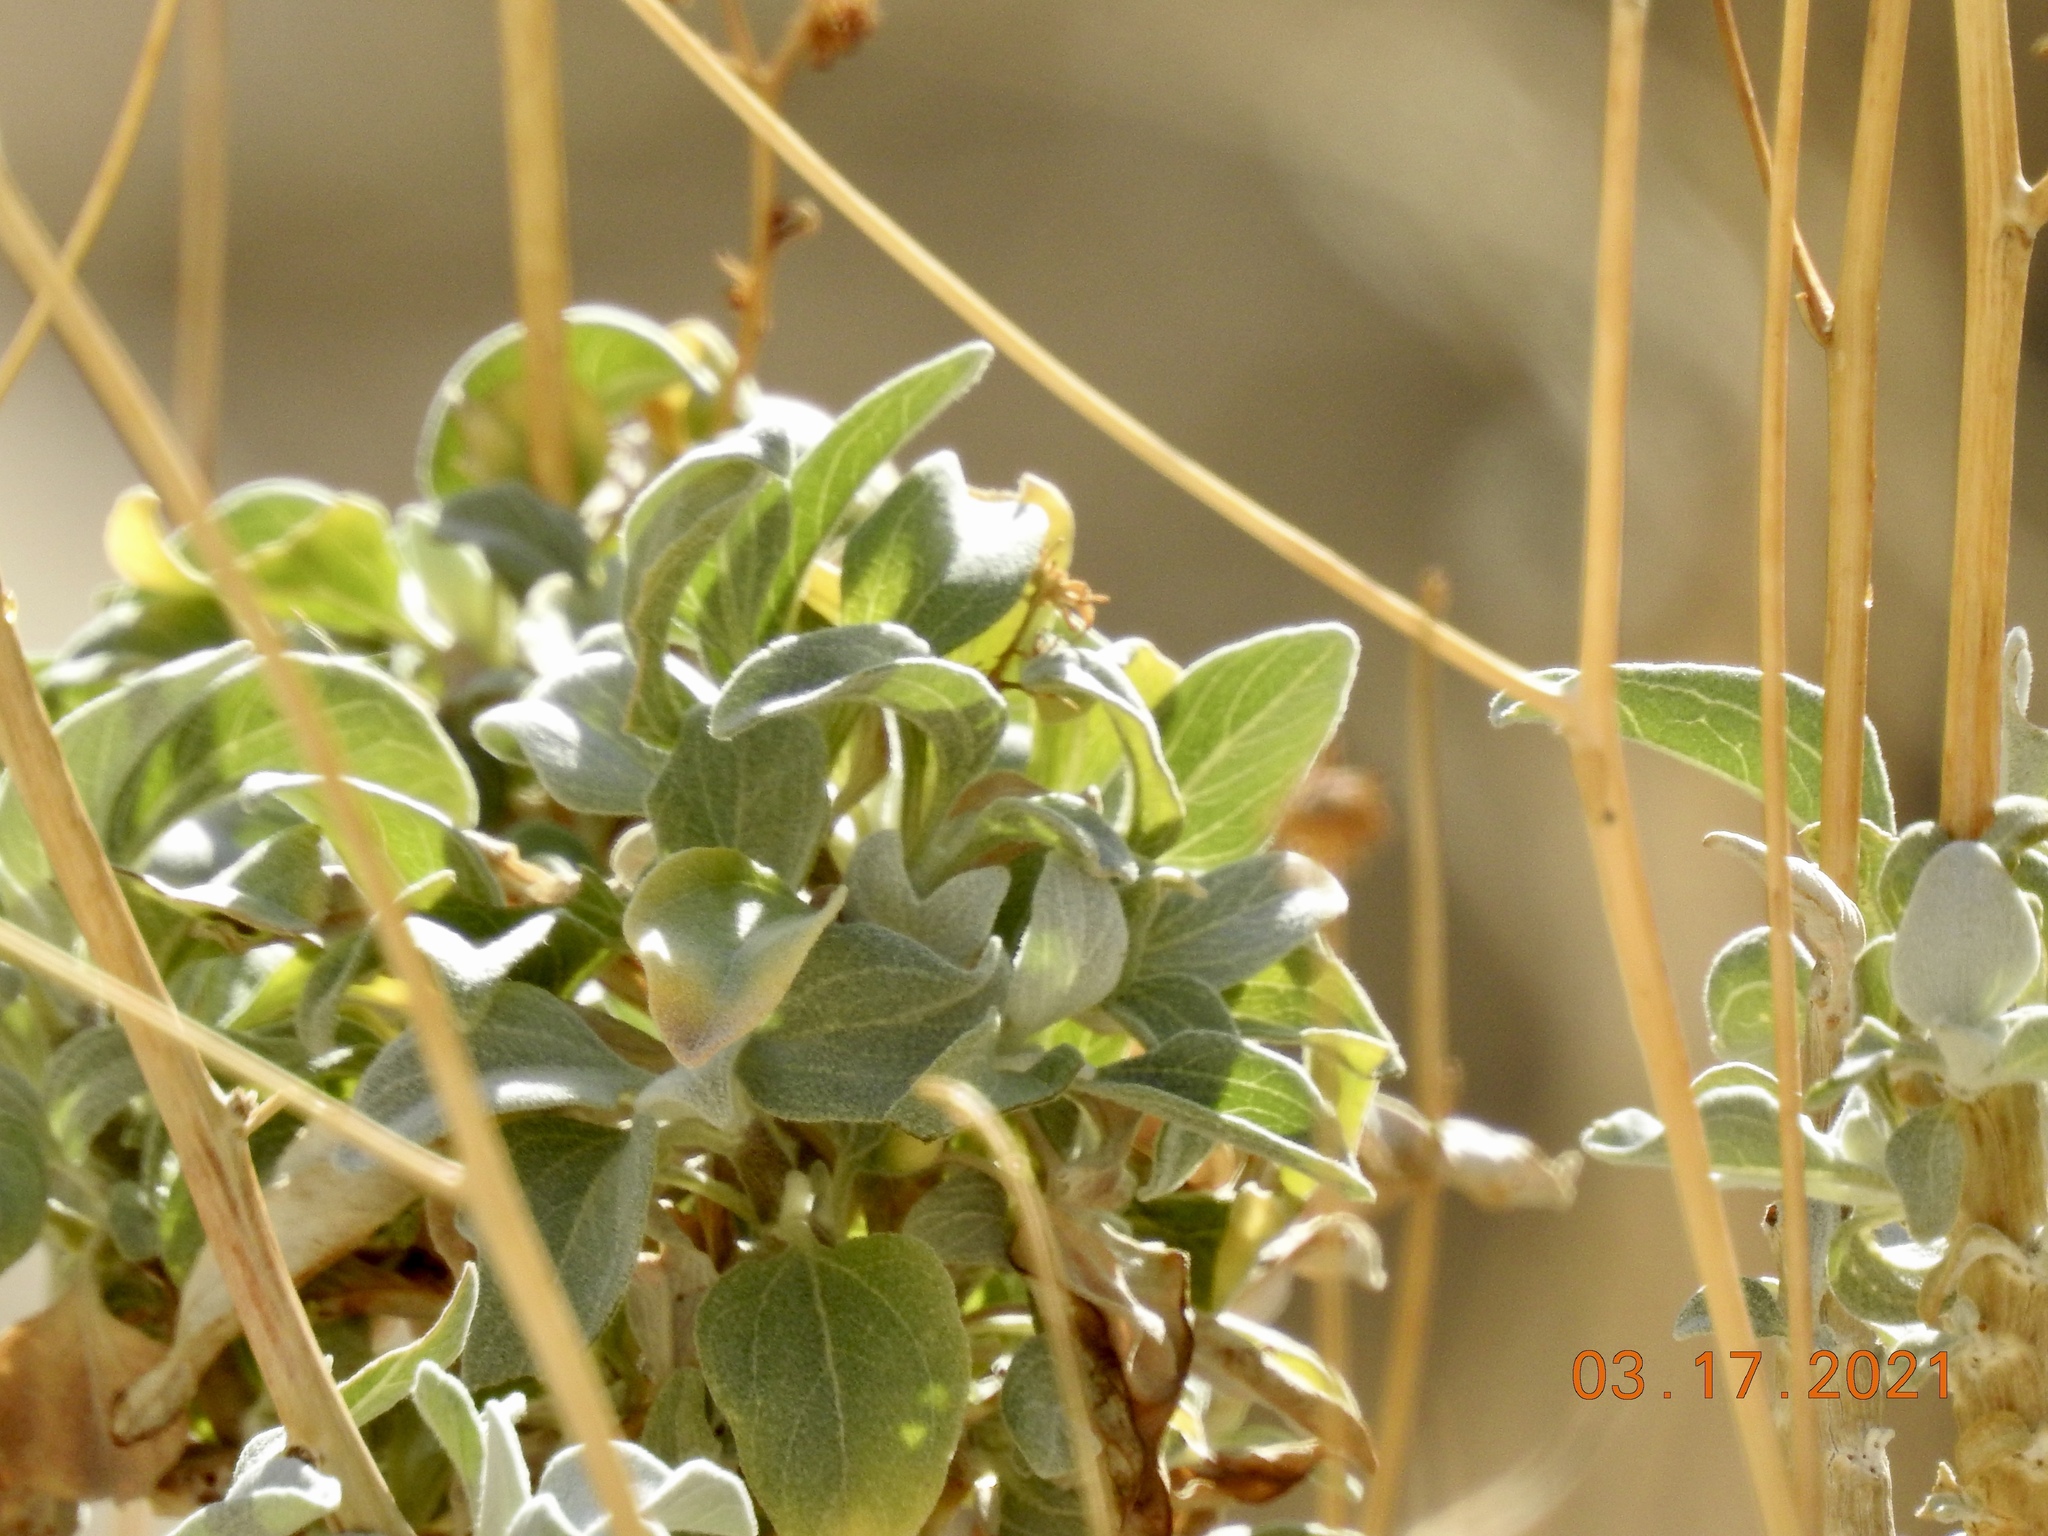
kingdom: Plantae
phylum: Tracheophyta
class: Magnoliopsida
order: Asterales
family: Asteraceae
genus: Encelia
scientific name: Encelia farinosa
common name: Brittlebush
